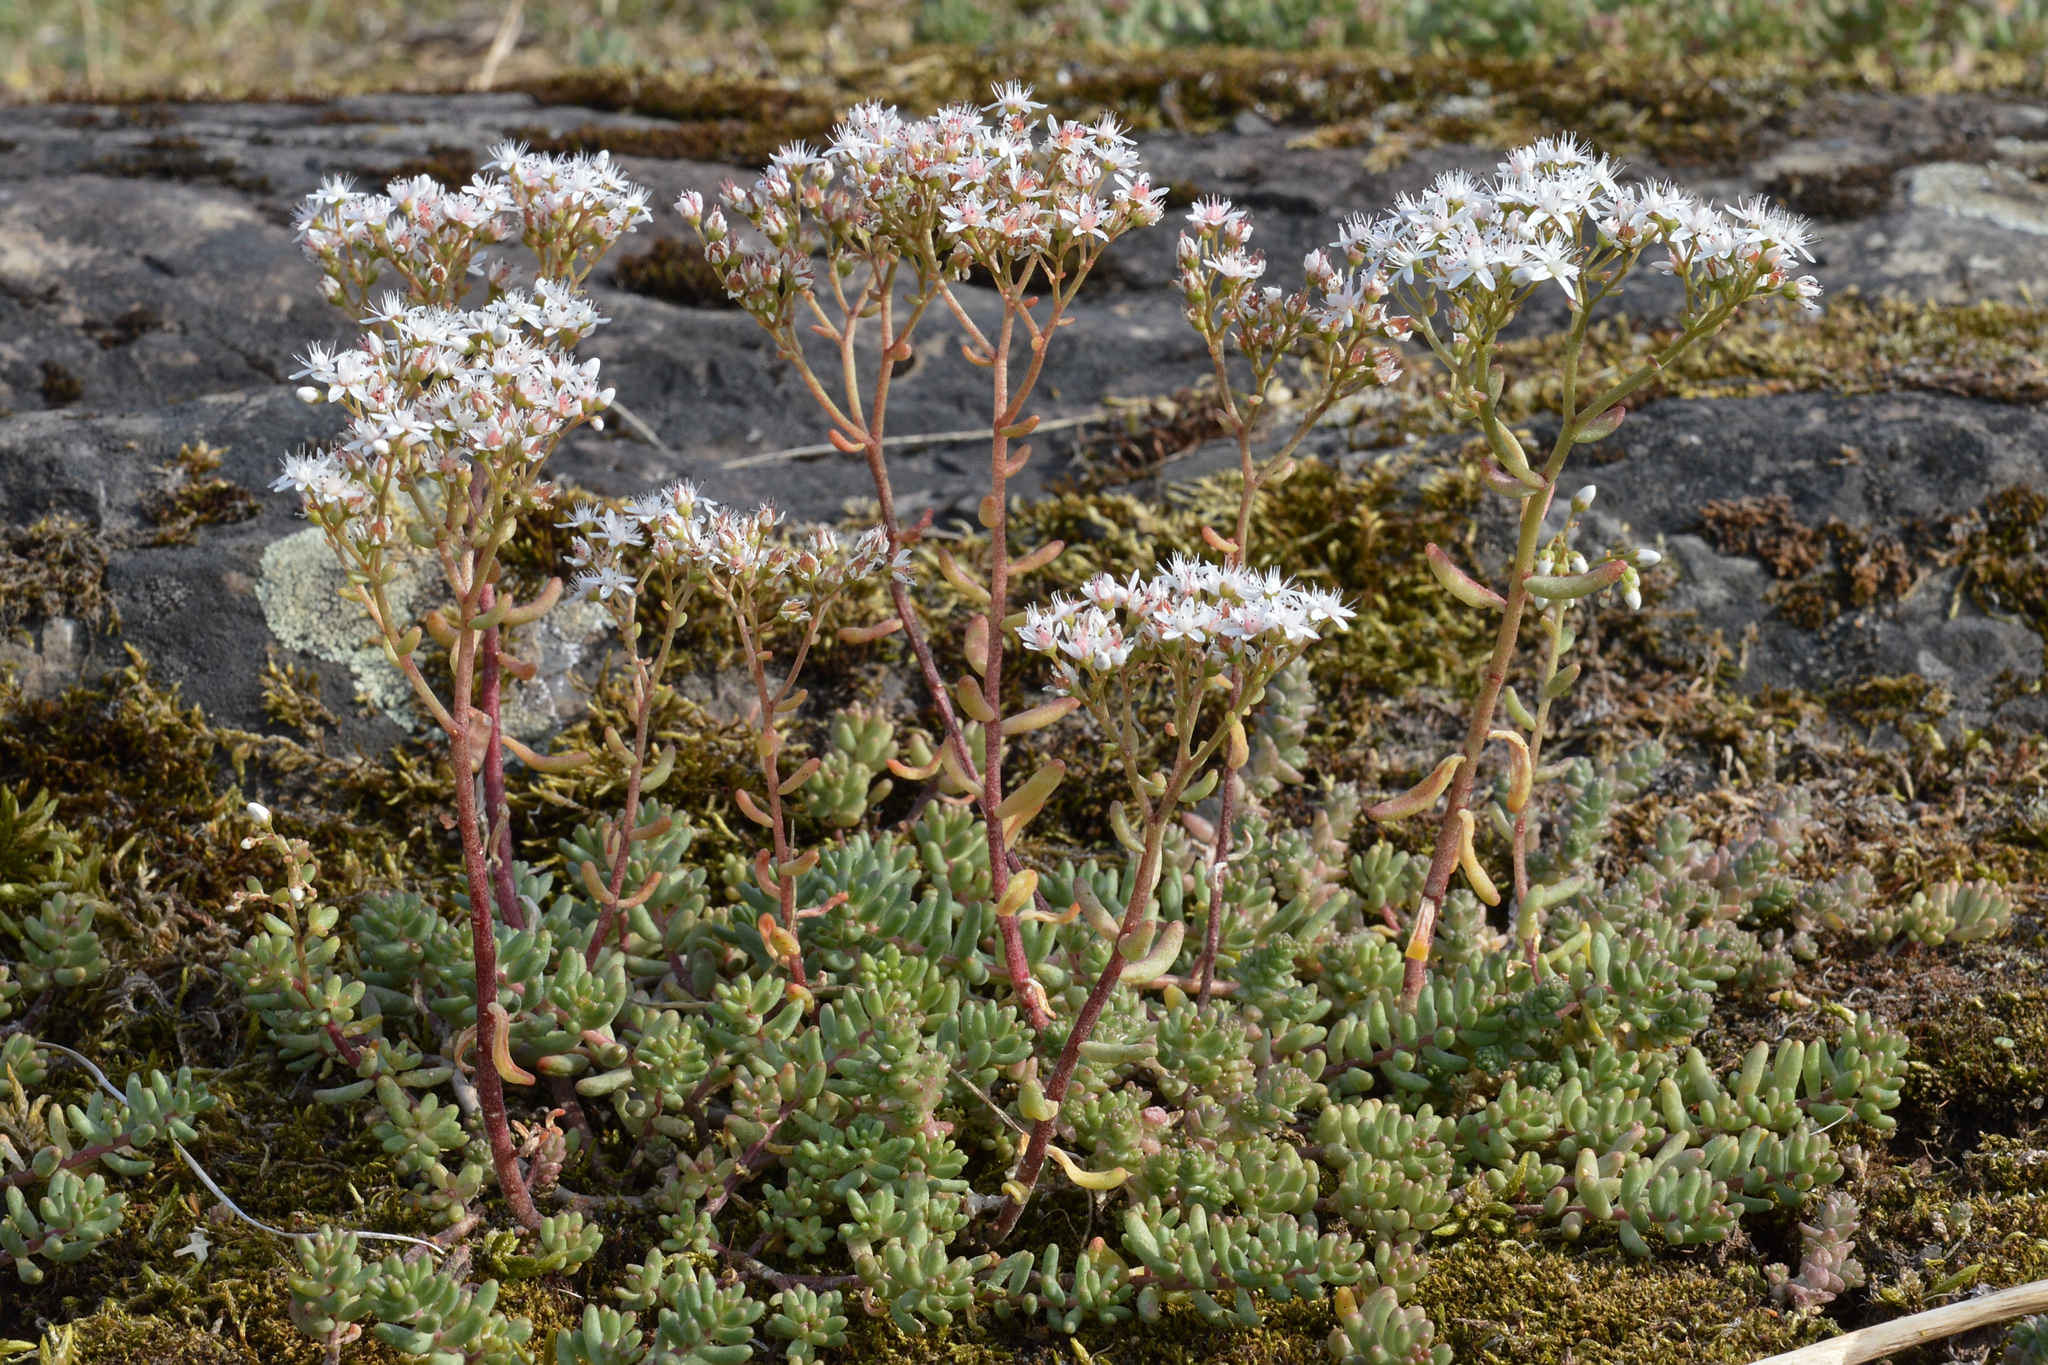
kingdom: Plantae
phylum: Tracheophyta
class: Magnoliopsida
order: Saxifragales
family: Crassulaceae
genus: Sedum
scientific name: Sedum album
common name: White stonecrop
